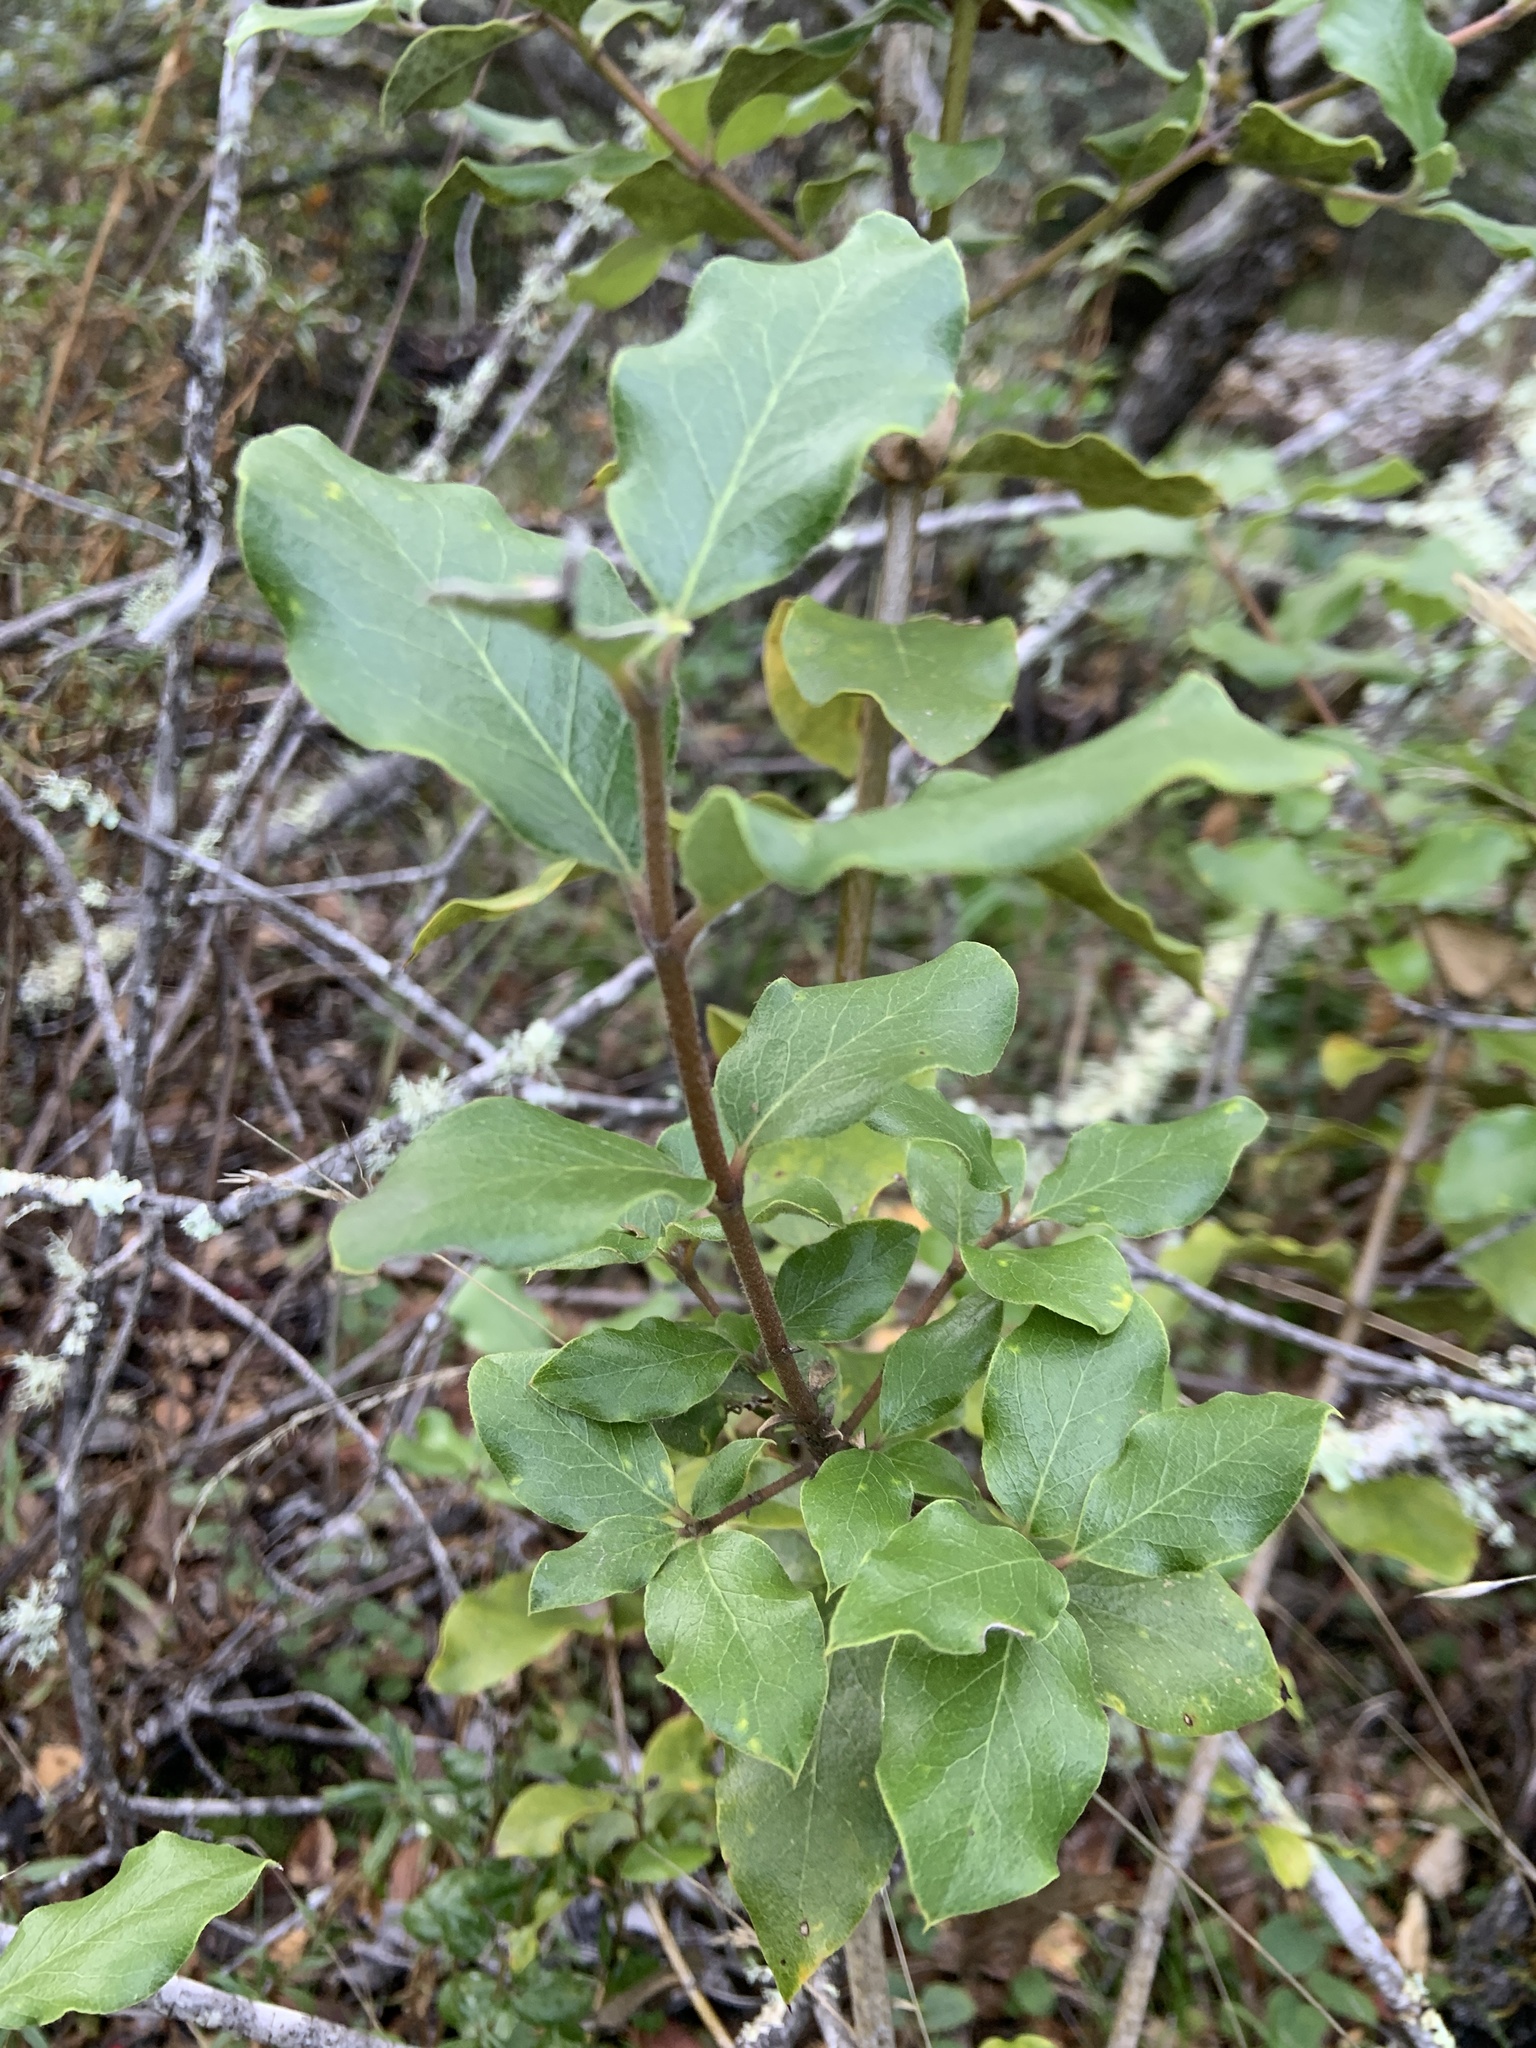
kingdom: Plantae
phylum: Tracheophyta
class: Magnoliopsida
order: Garryales
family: Garryaceae
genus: Garrya
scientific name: Garrya elliptica
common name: Silk-tassel
